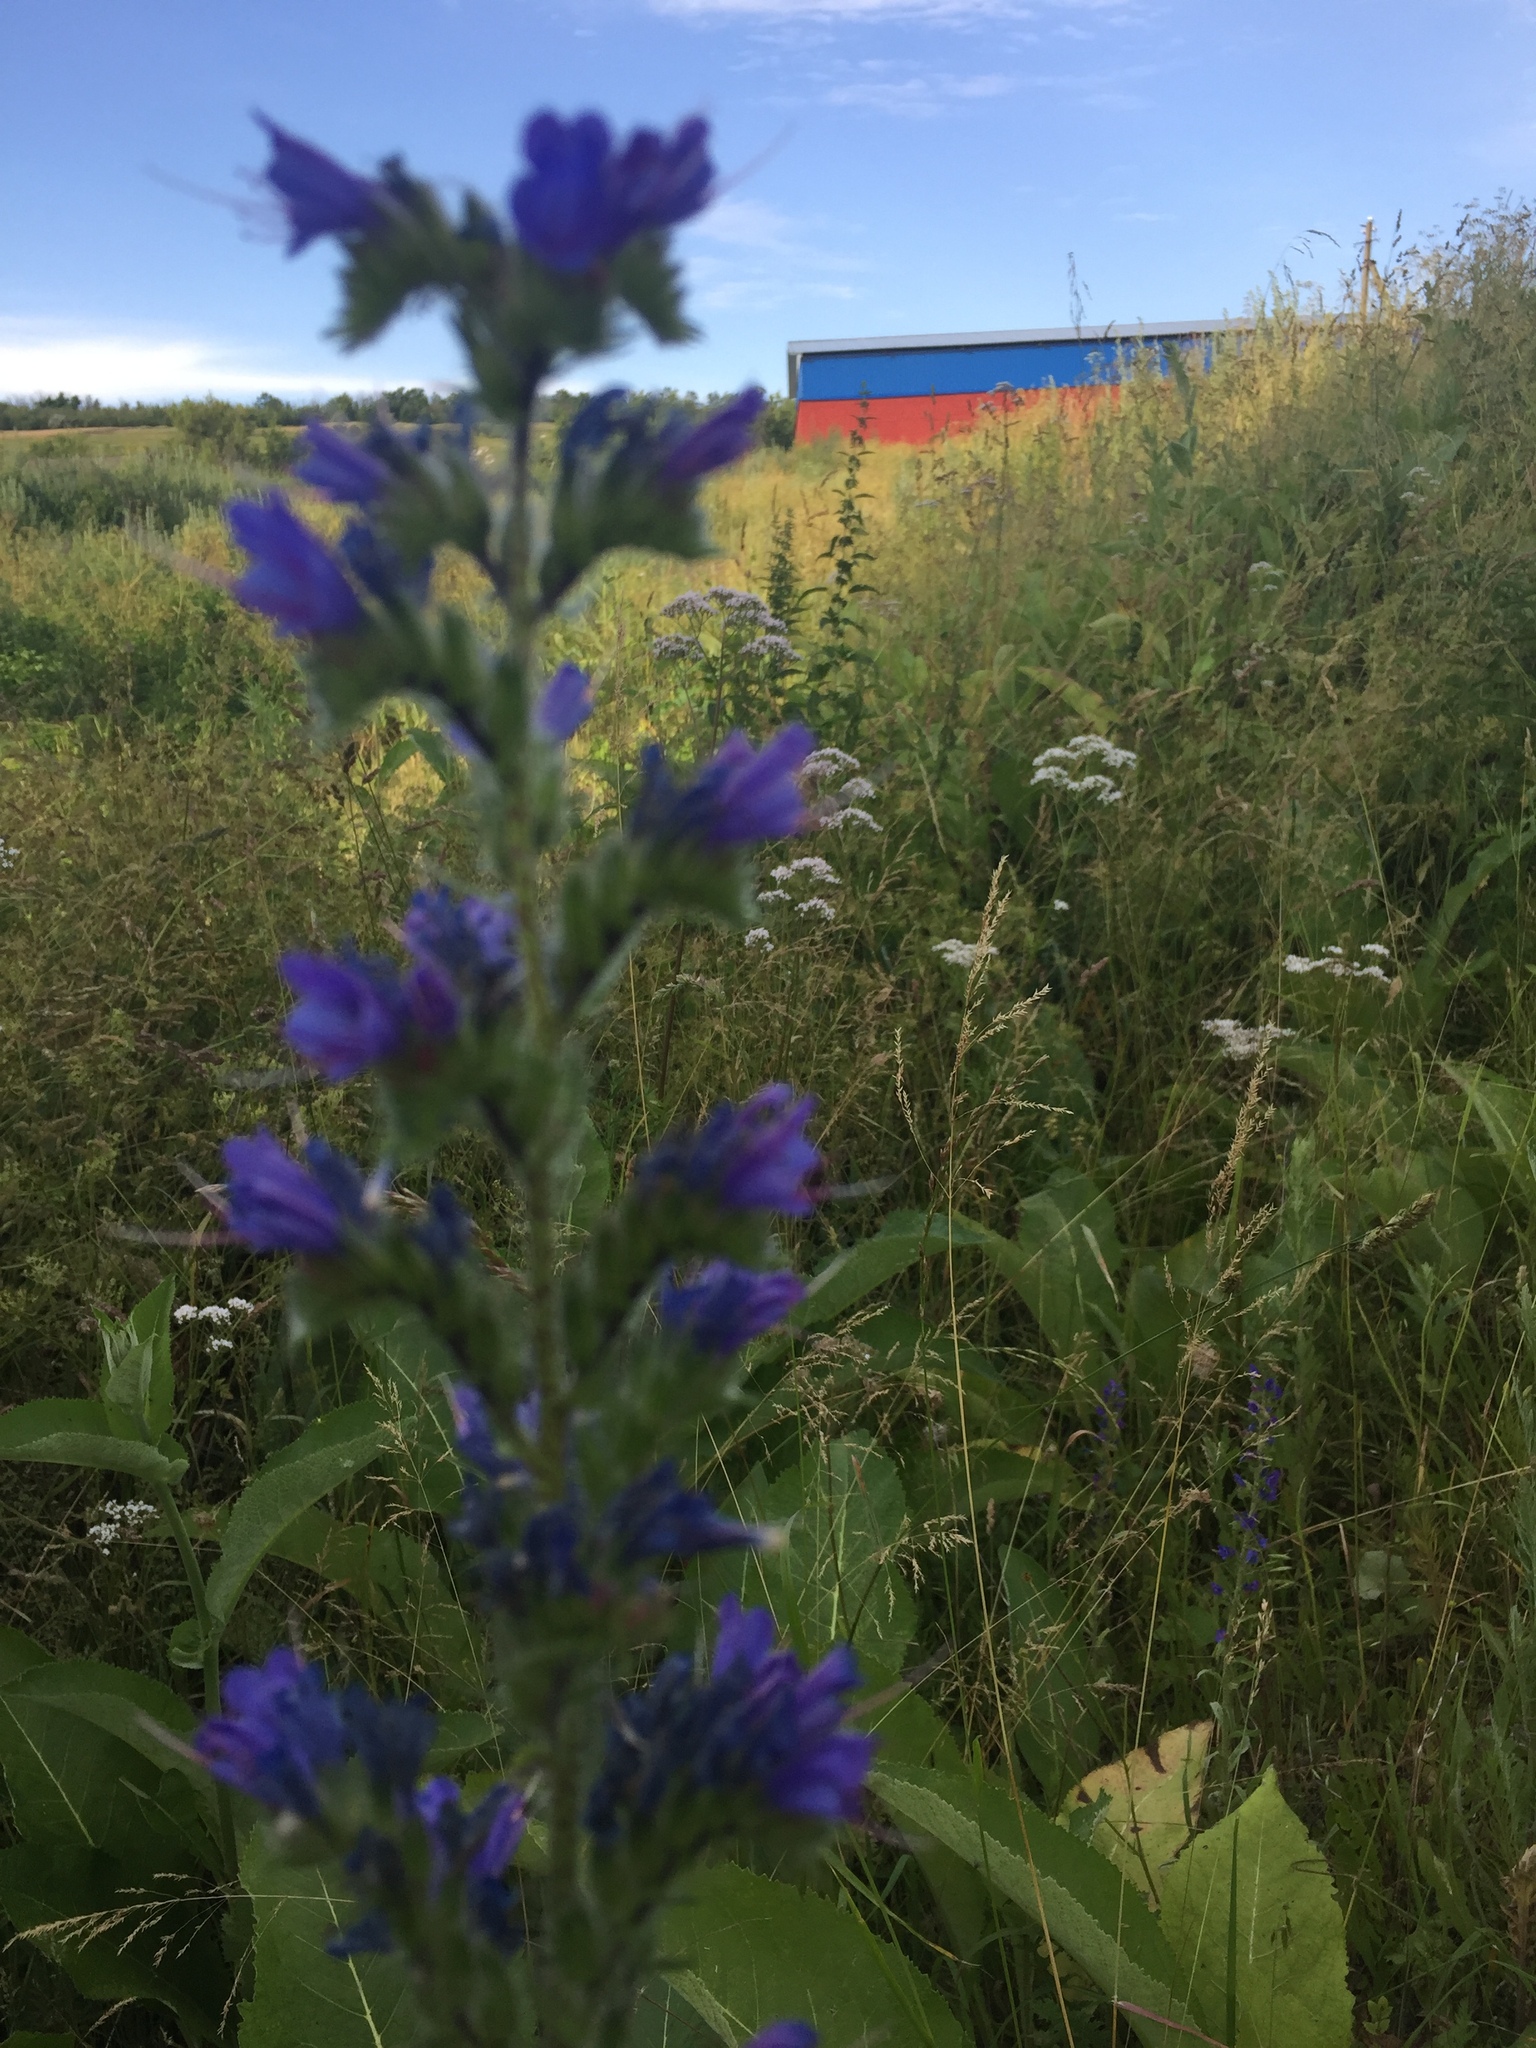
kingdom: Plantae
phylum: Tracheophyta
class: Magnoliopsida
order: Boraginales
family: Boraginaceae
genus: Echium
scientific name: Echium vulgare
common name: Common viper's bugloss
